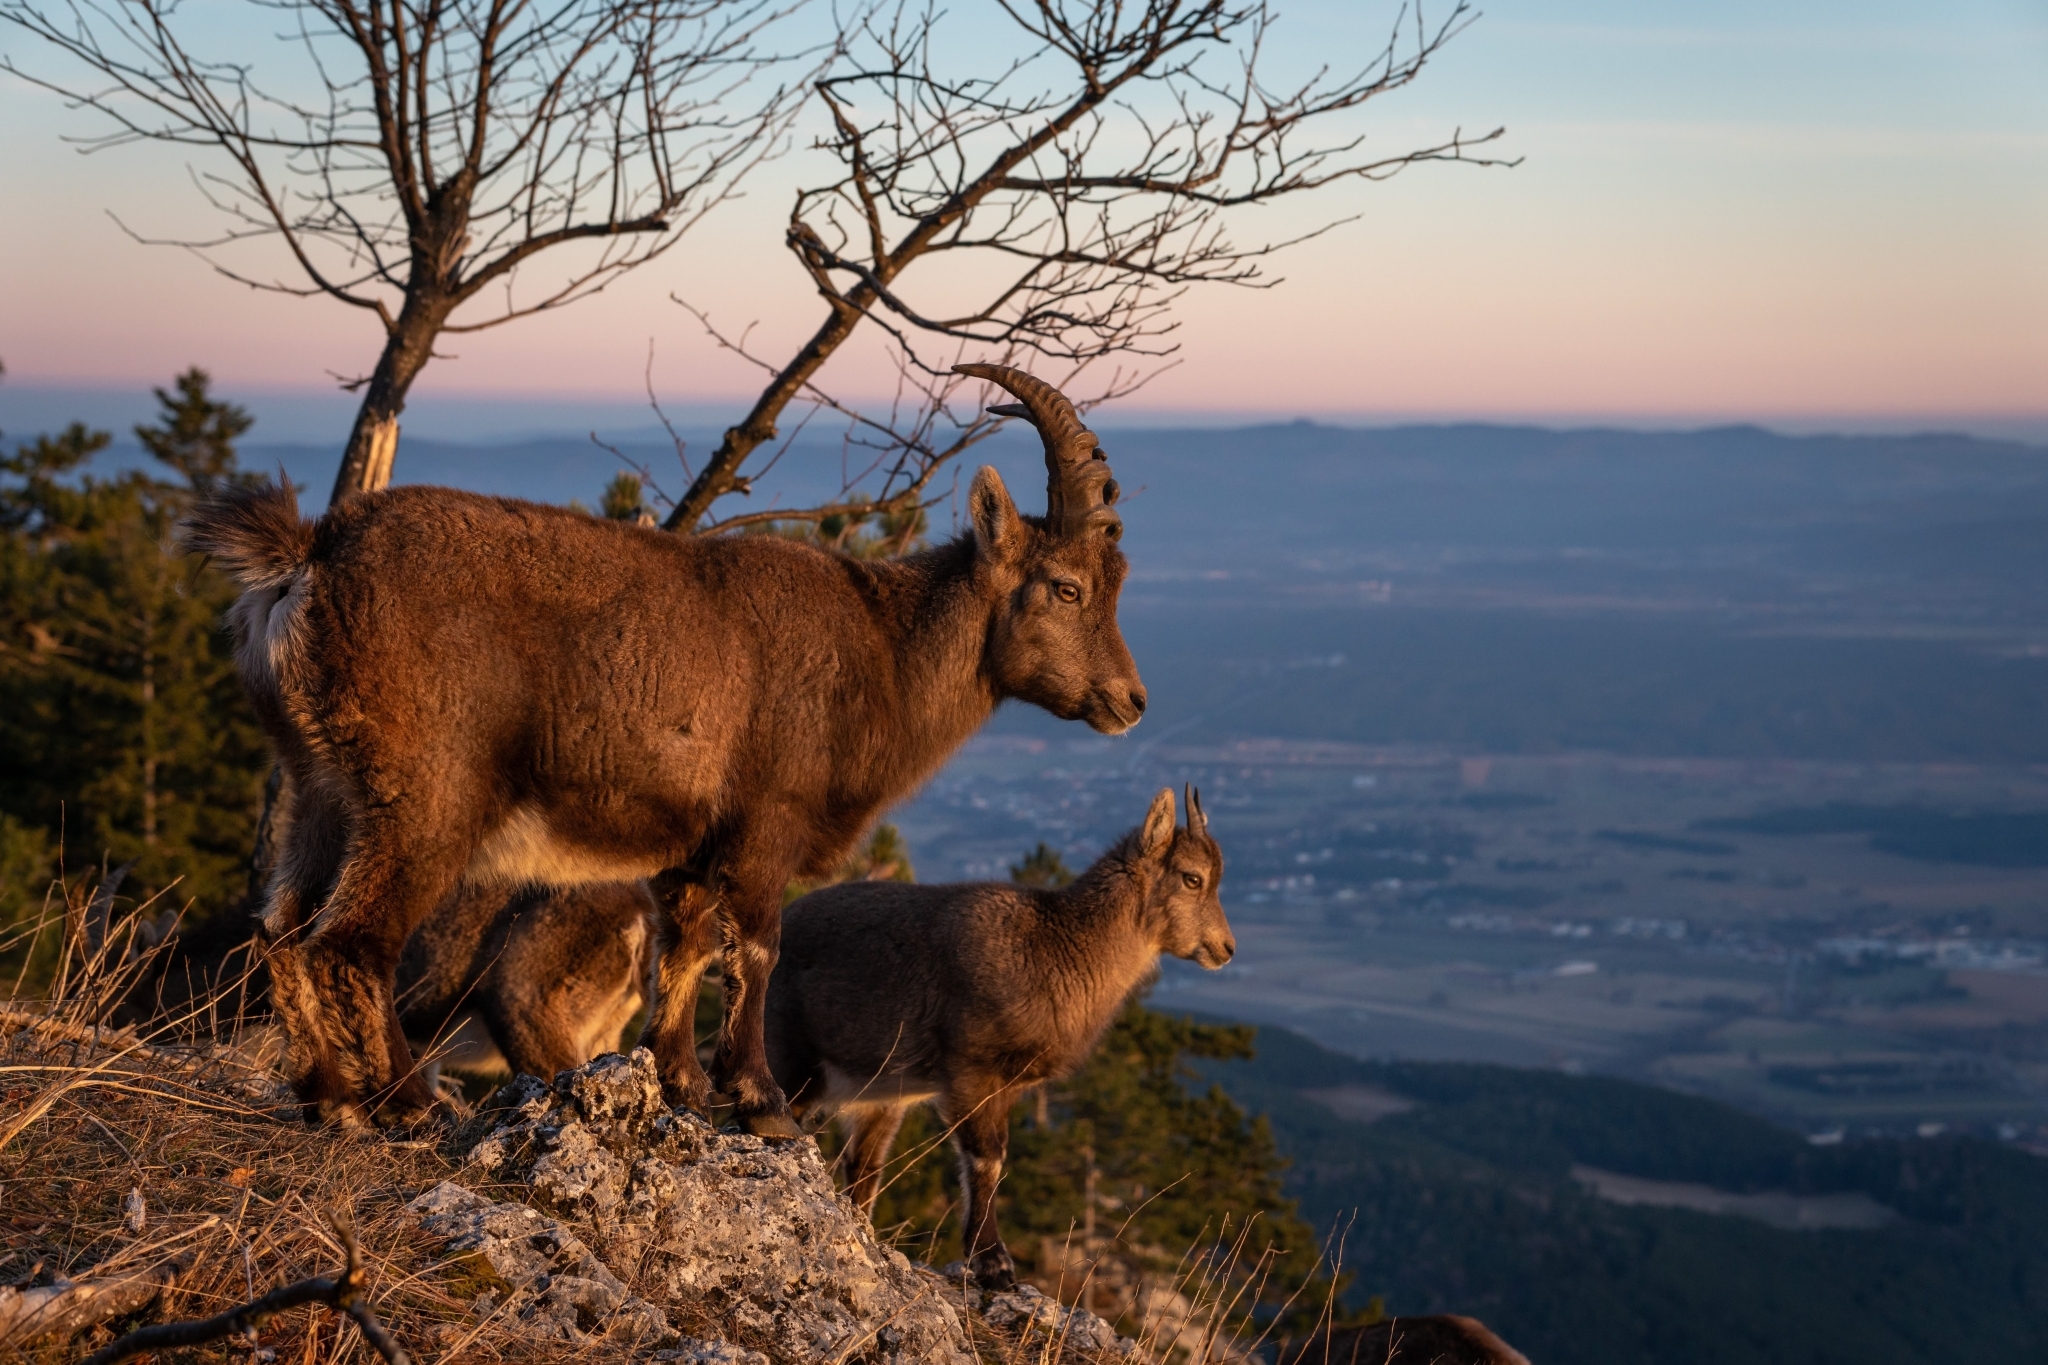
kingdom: Animalia
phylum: Chordata
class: Mammalia
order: Artiodactyla
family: Bovidae
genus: Capra
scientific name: Capra ibex
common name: Alpine ibex
